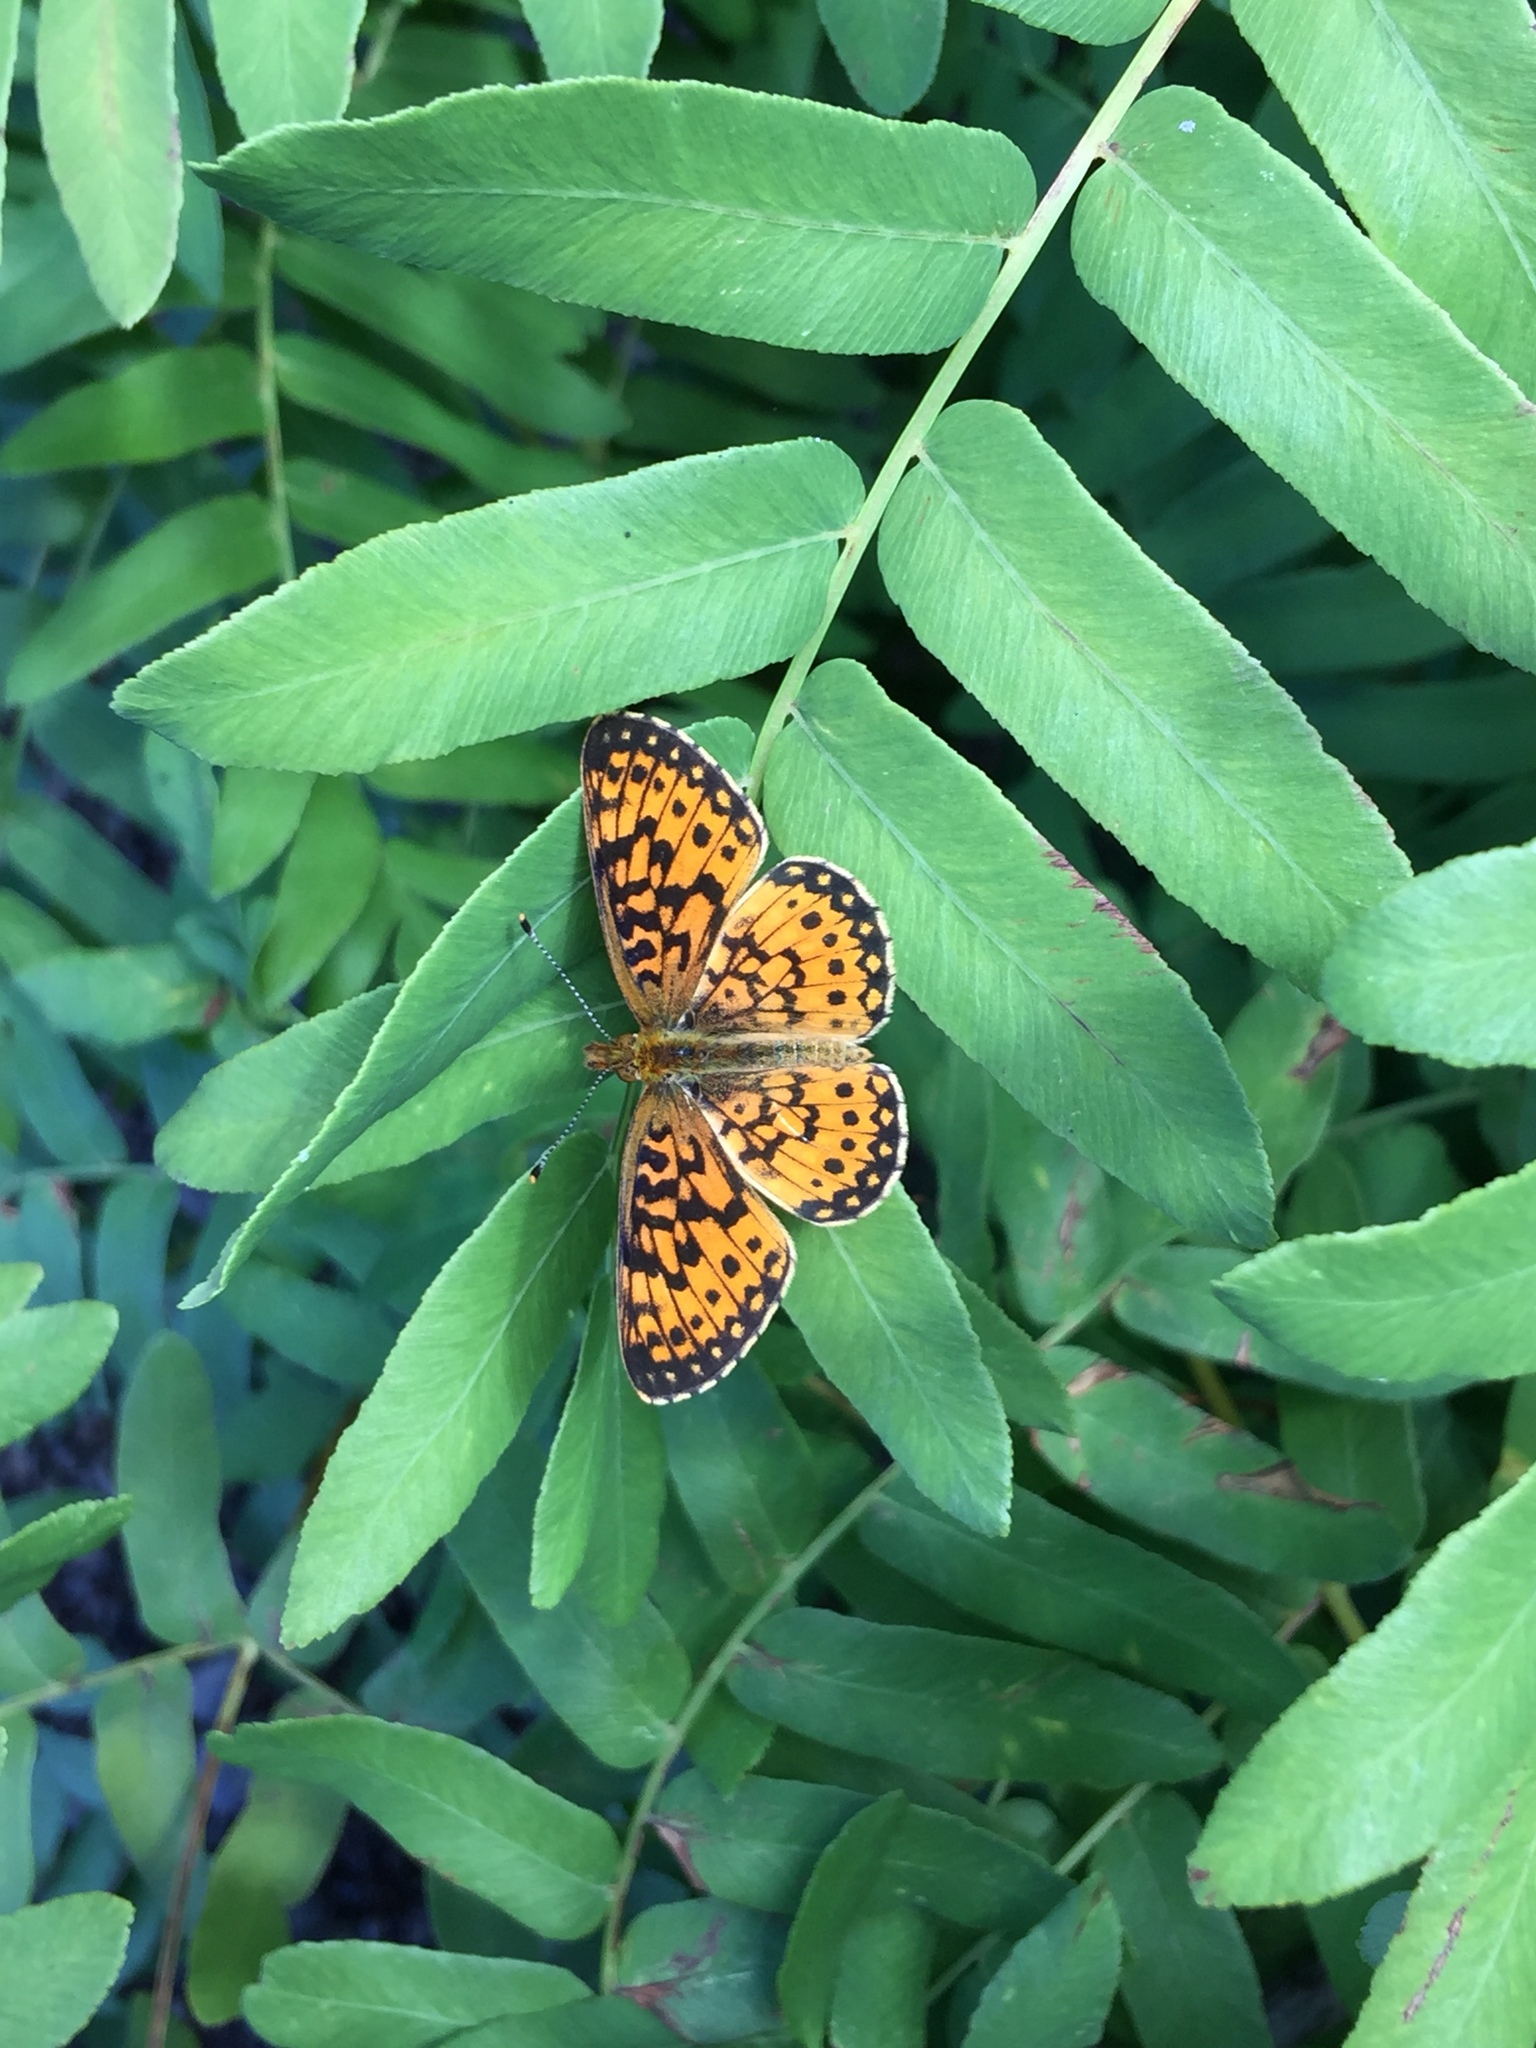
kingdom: Animalia
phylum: Arthropoda
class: Insecta
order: Lepidoptera
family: Nymphalidae
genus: Boloria
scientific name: Boloria
